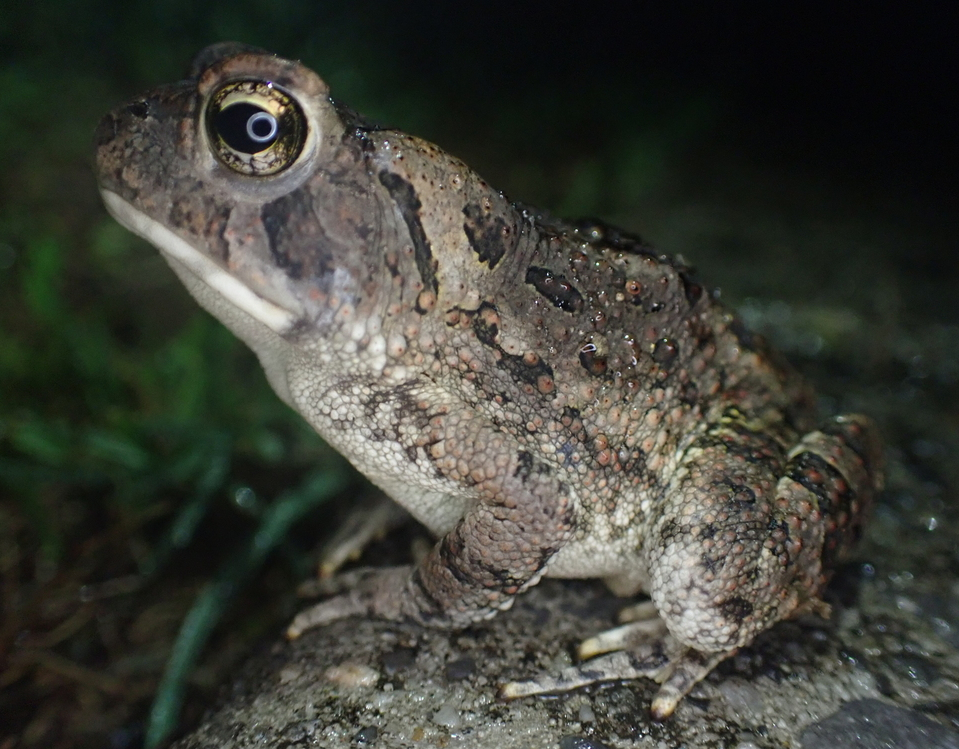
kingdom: Animalia
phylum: Chordata
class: Amphibia
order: Anura
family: Bufonidae
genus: Anaxyrus
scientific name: Anaxyrus fowleri
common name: Fowler's toad
